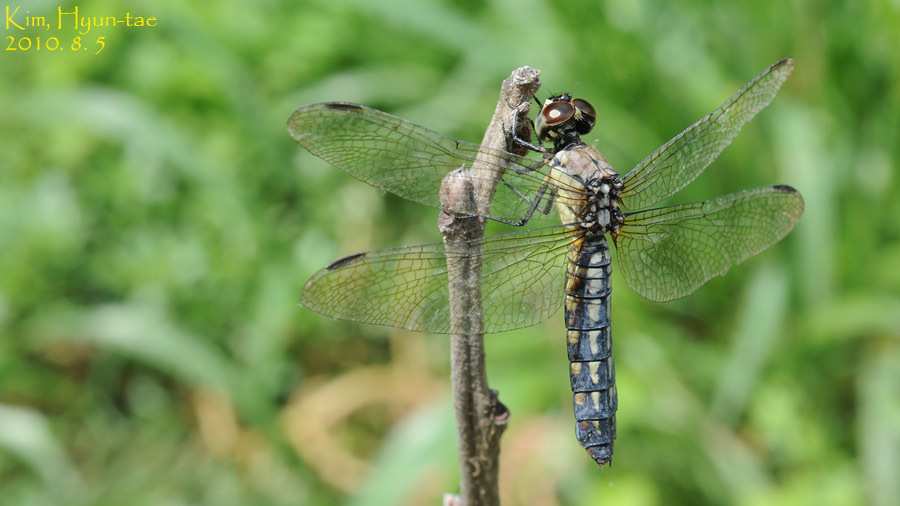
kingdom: Animalia
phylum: Arthropoda
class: Insecta
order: Odonata
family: Libellulidae
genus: Lyriothemis
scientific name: Lyriothemis pachygastra
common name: Wide-bellied skimmer
